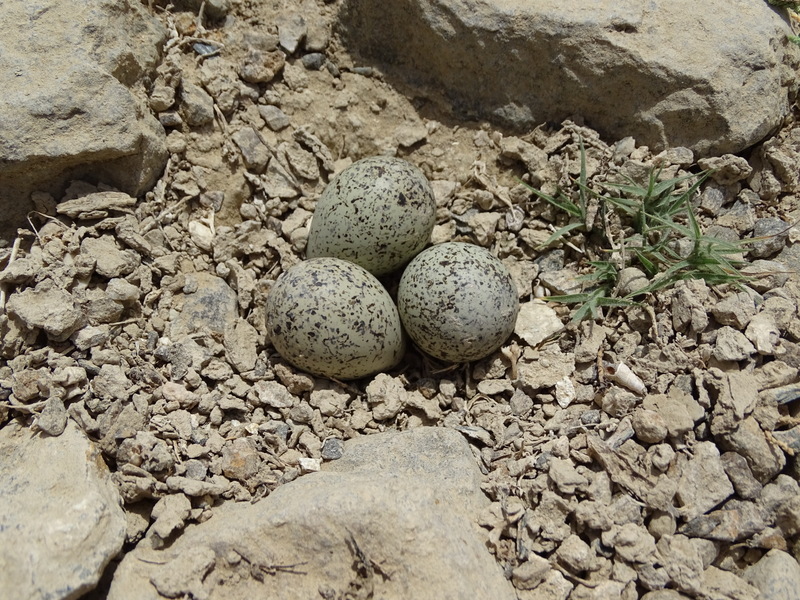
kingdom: Animalia
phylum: Chordata
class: Aves
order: Charadriiformes
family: Charadriidae
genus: Charadrius
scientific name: Charadrius dubius
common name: Little ringed plover
